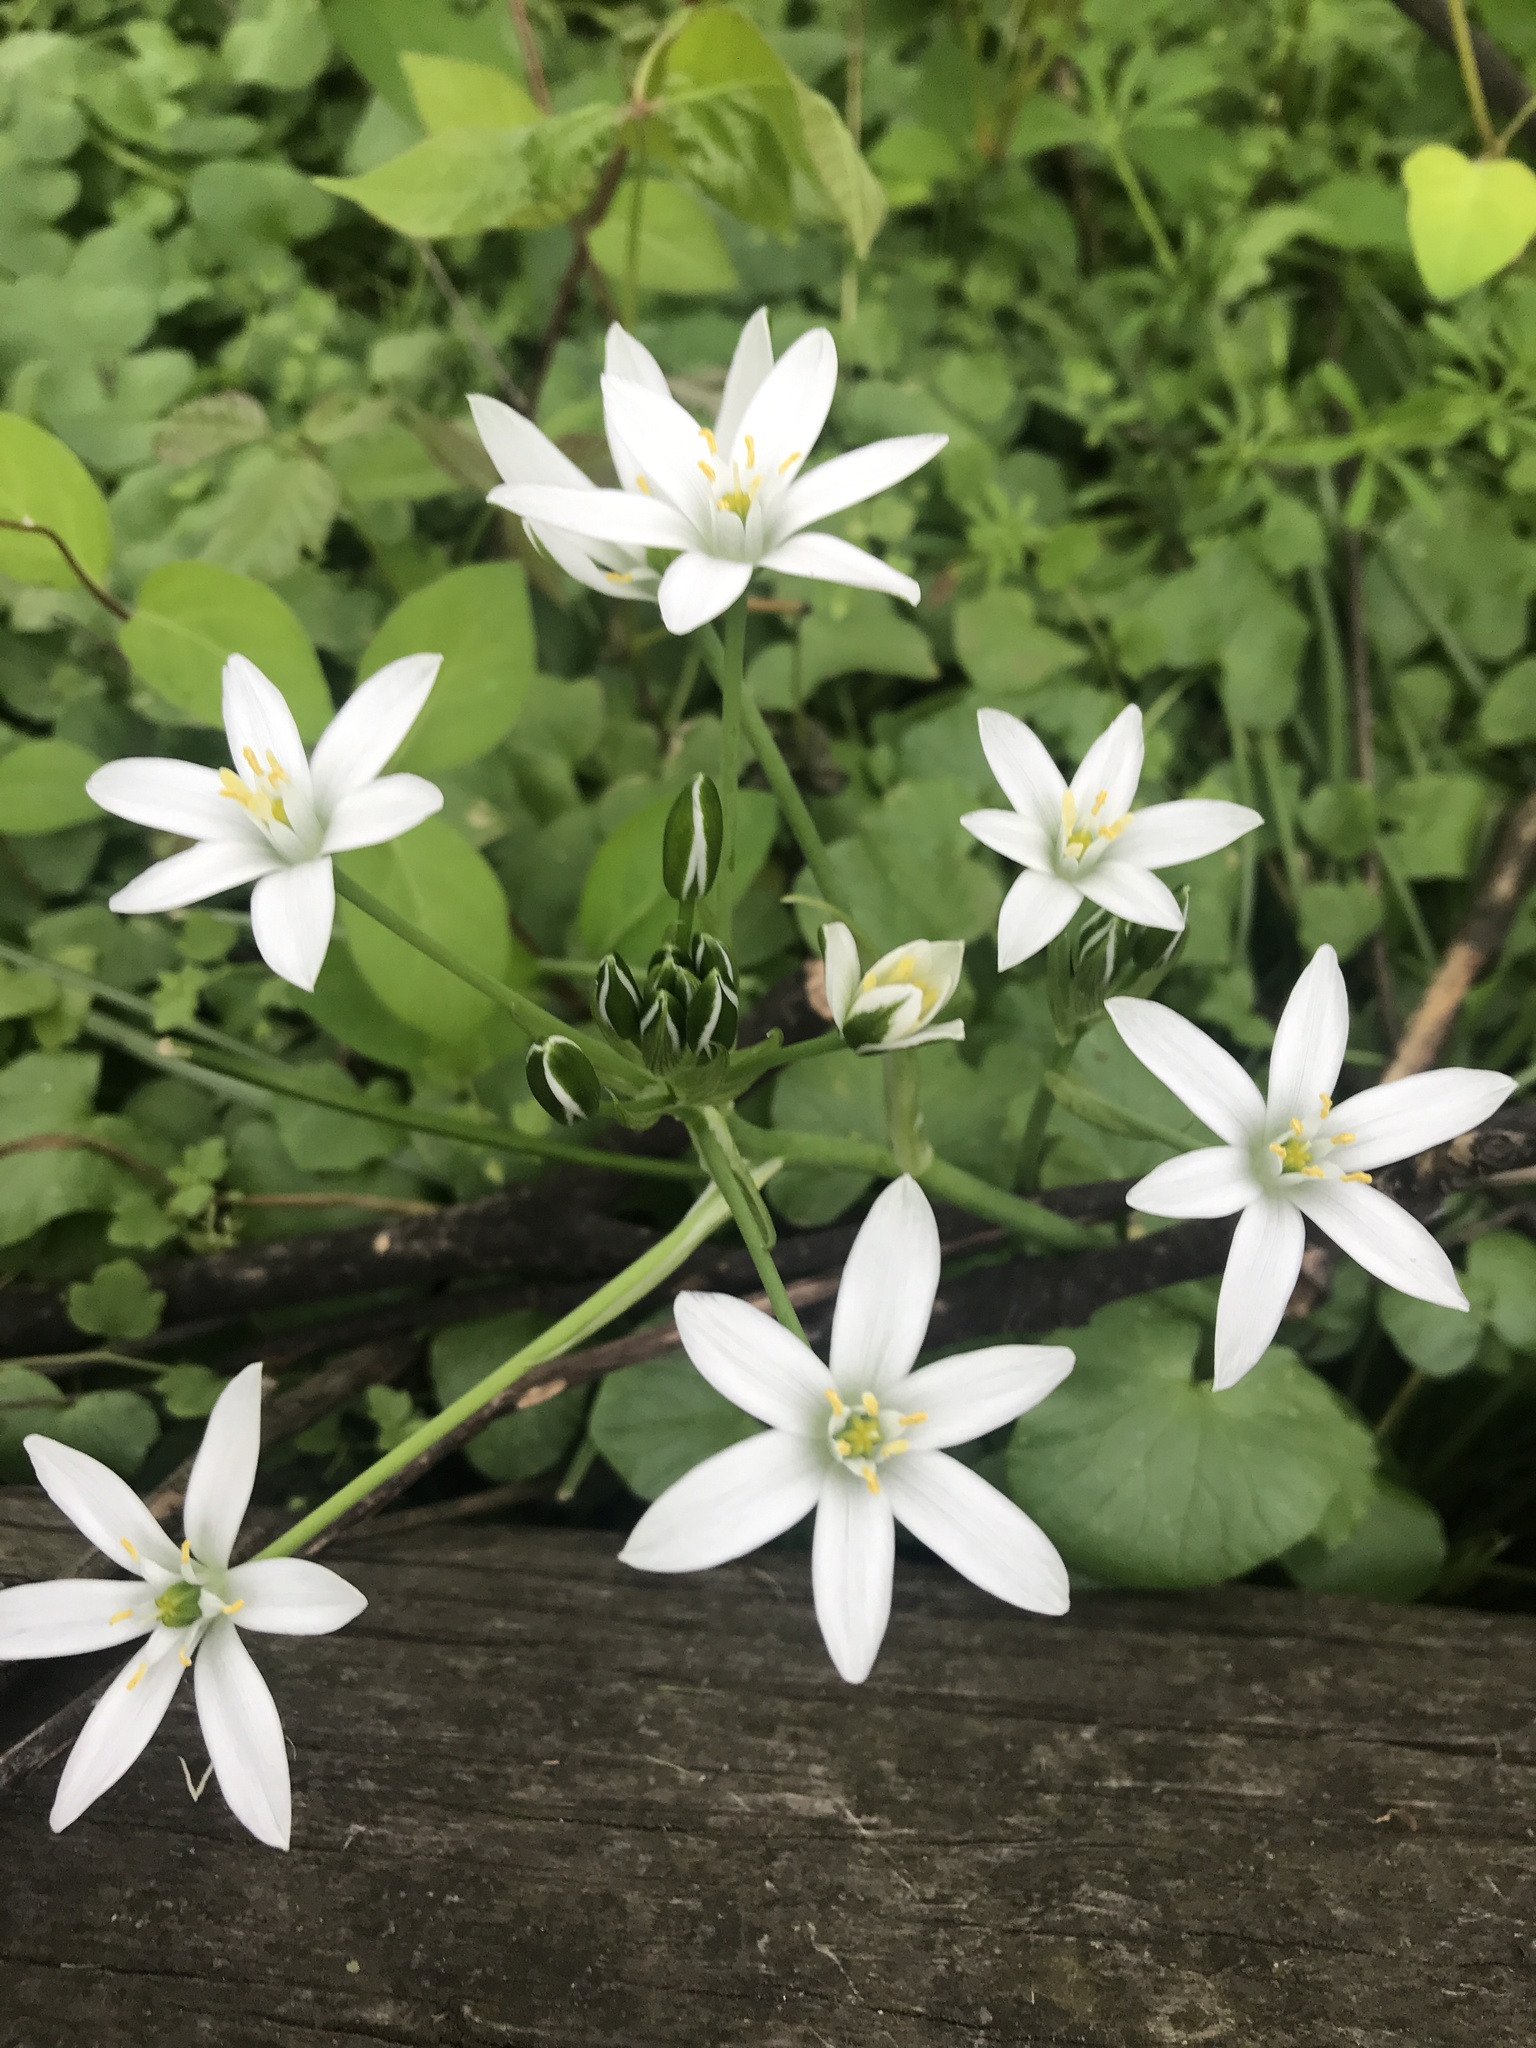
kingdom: Plantae
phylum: Tracheophyta
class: Liliopsida
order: Asparagales
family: Asparagaceae
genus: Ornithogalum
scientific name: Ornithogalum umbellatum
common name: Garden star-of-bethlehem
